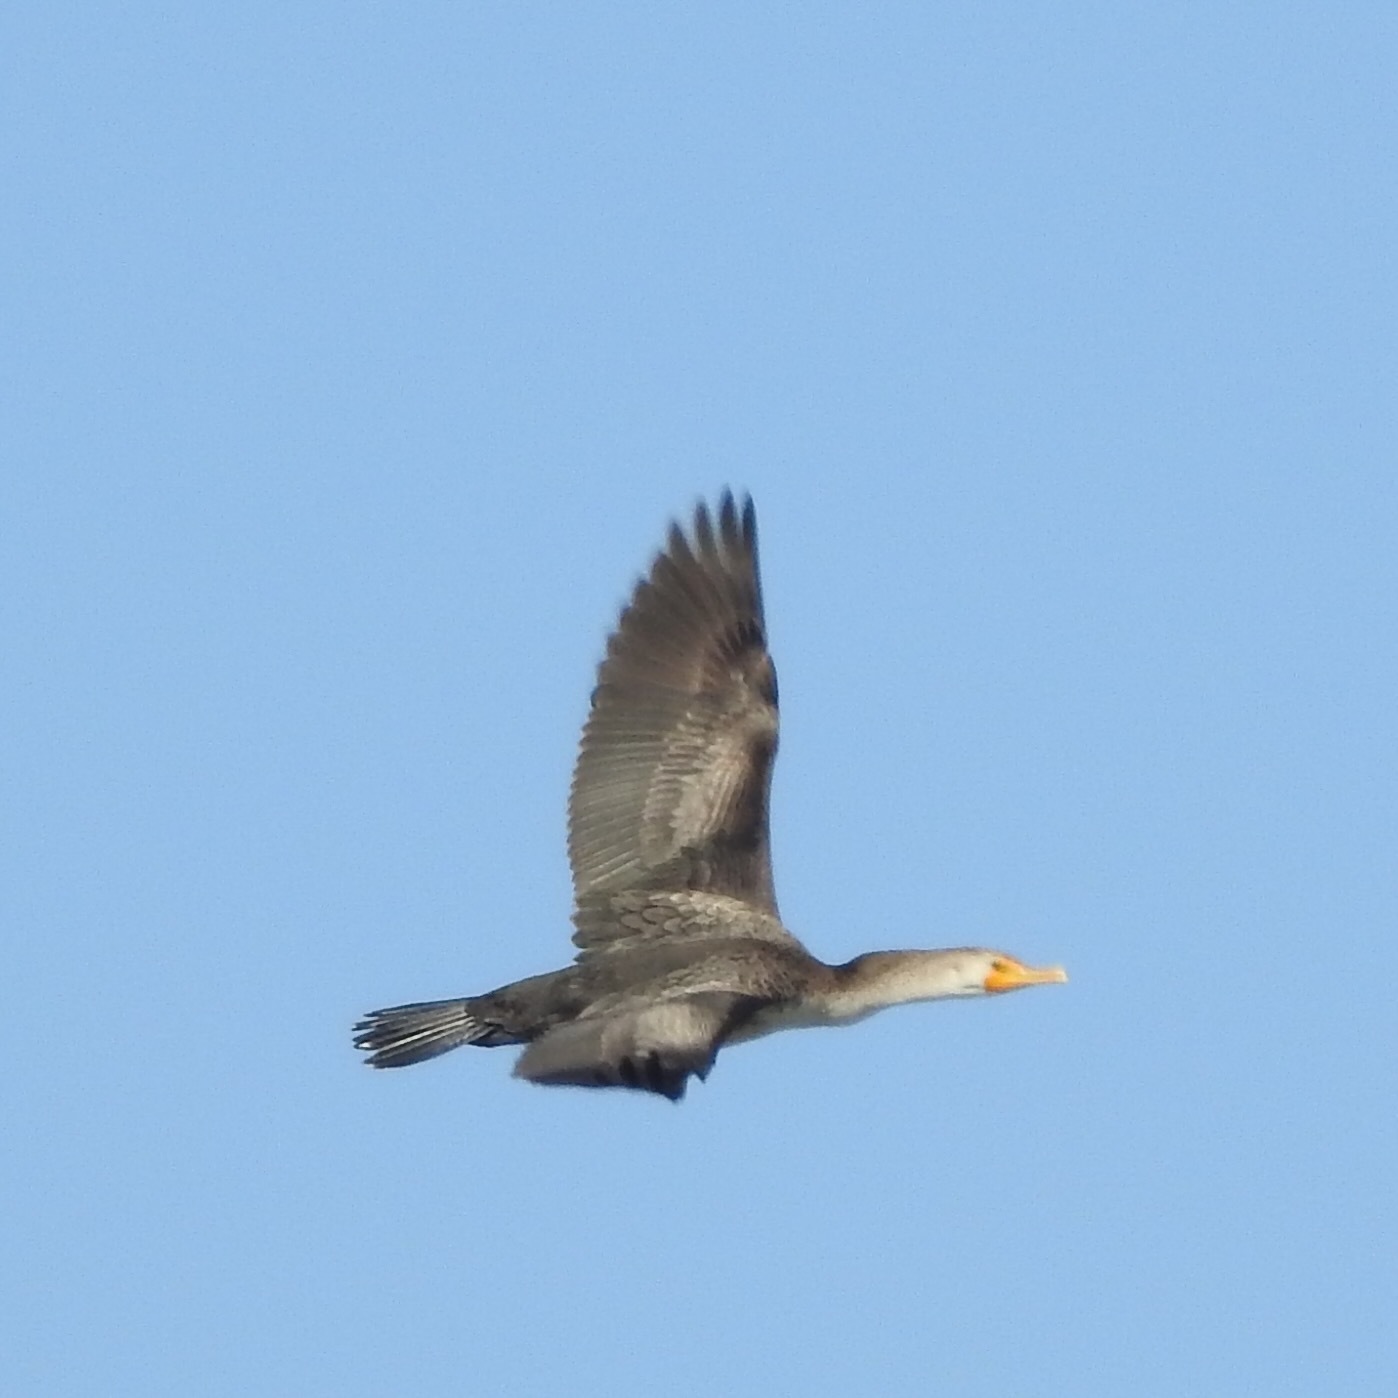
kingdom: Animalia
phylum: Chordata
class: Aves
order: Suliformes
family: Phalacrocoracidae
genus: Phalacrocorax
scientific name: Phalacrocorax auritus
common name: Double-crested cormorant
